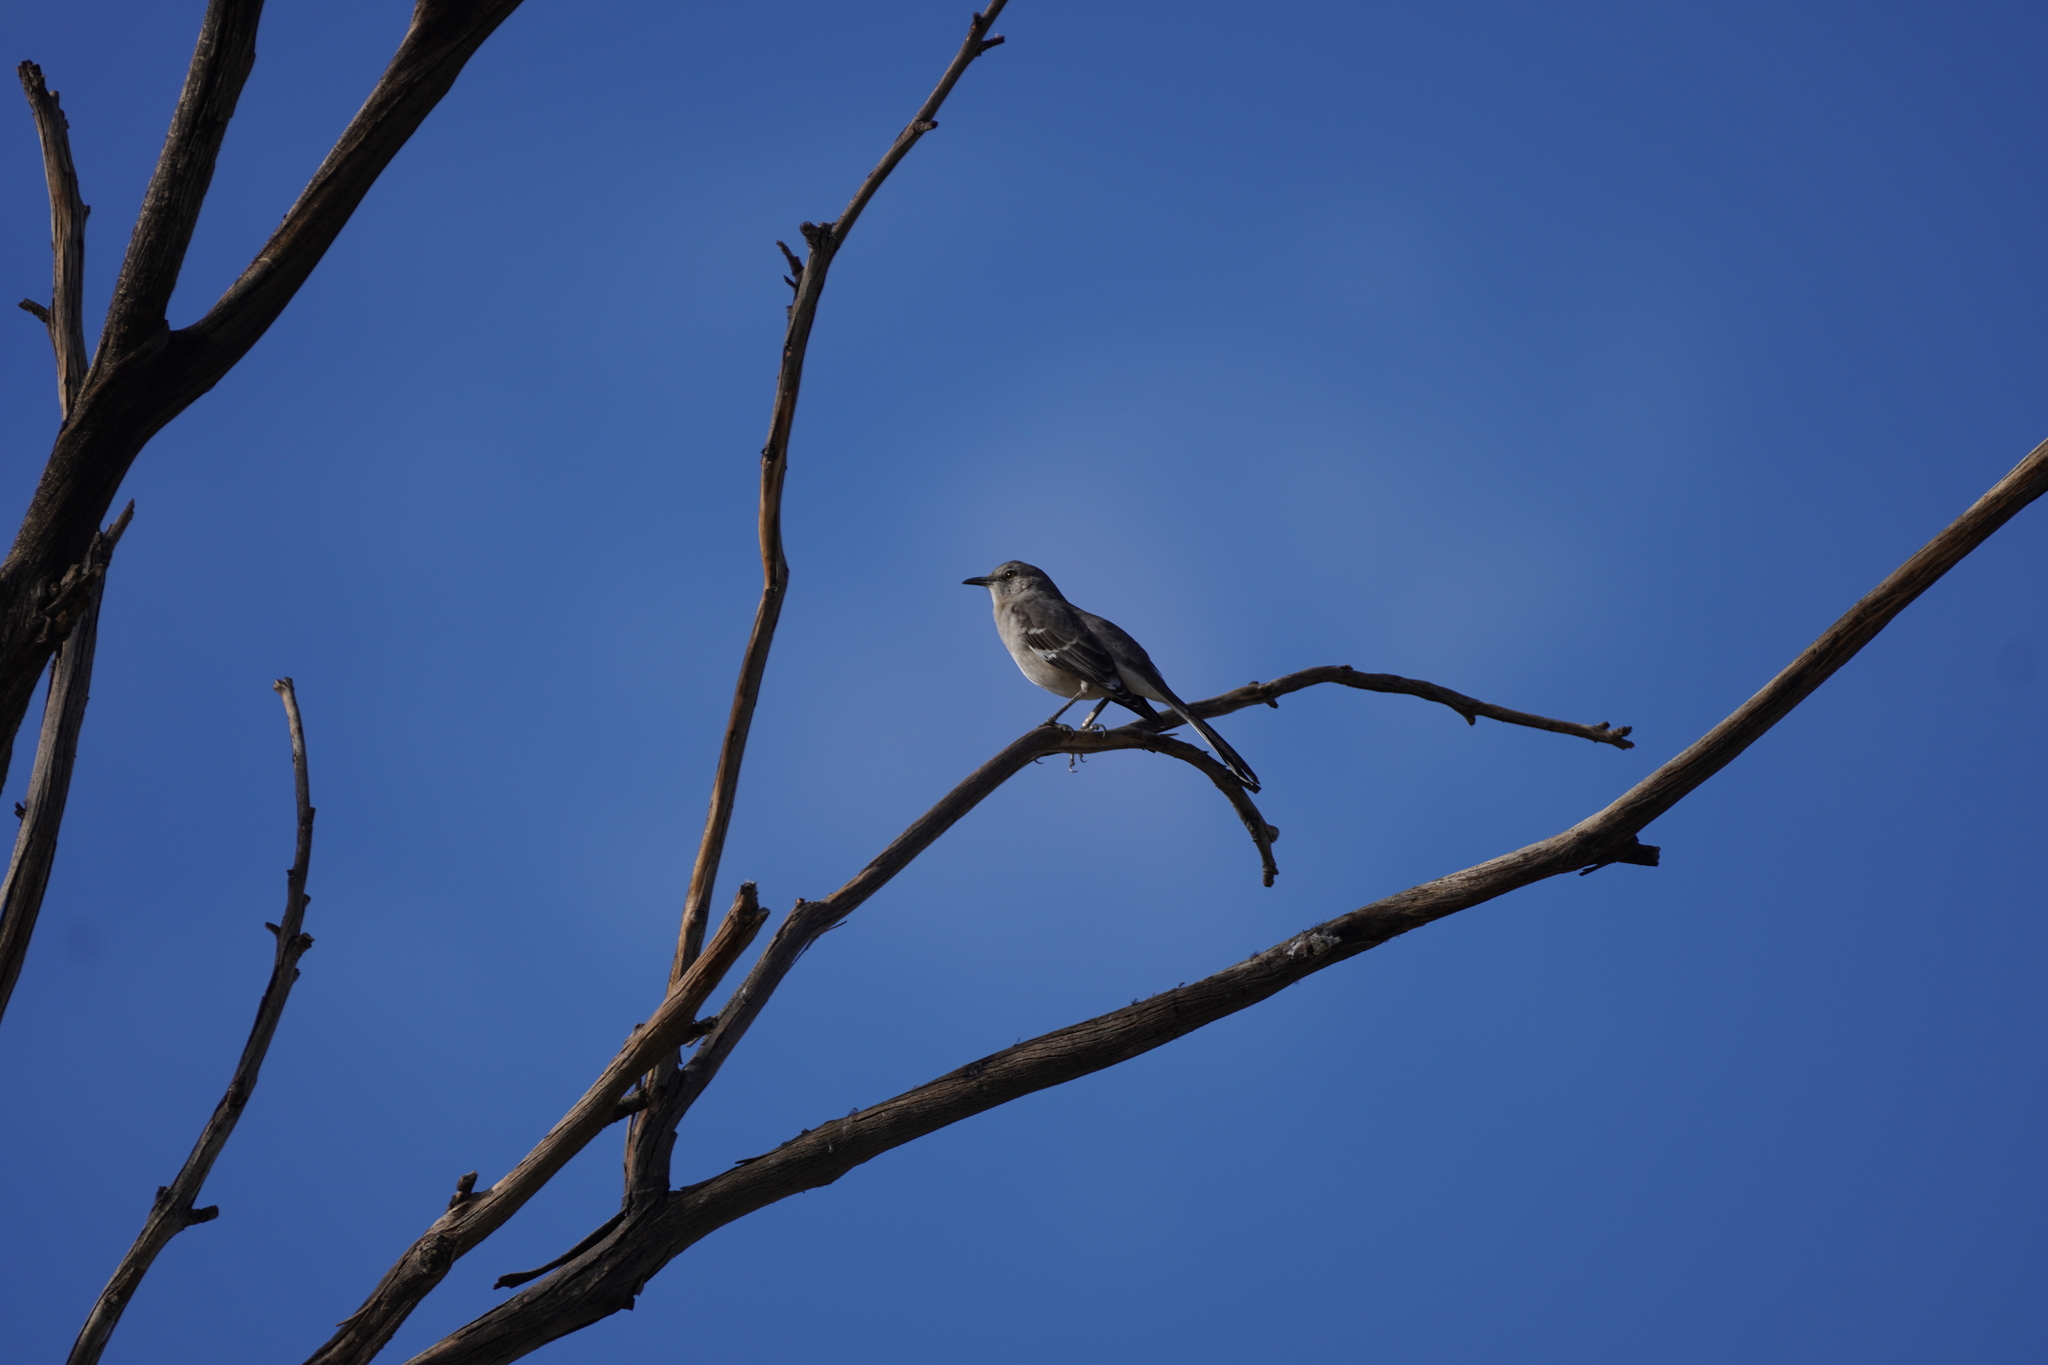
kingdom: Animalia
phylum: Chordata
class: Aves
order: Passeriformes
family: Mimidae
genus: Mimus
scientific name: Mimus polyglottos
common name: Northern mockingbird
